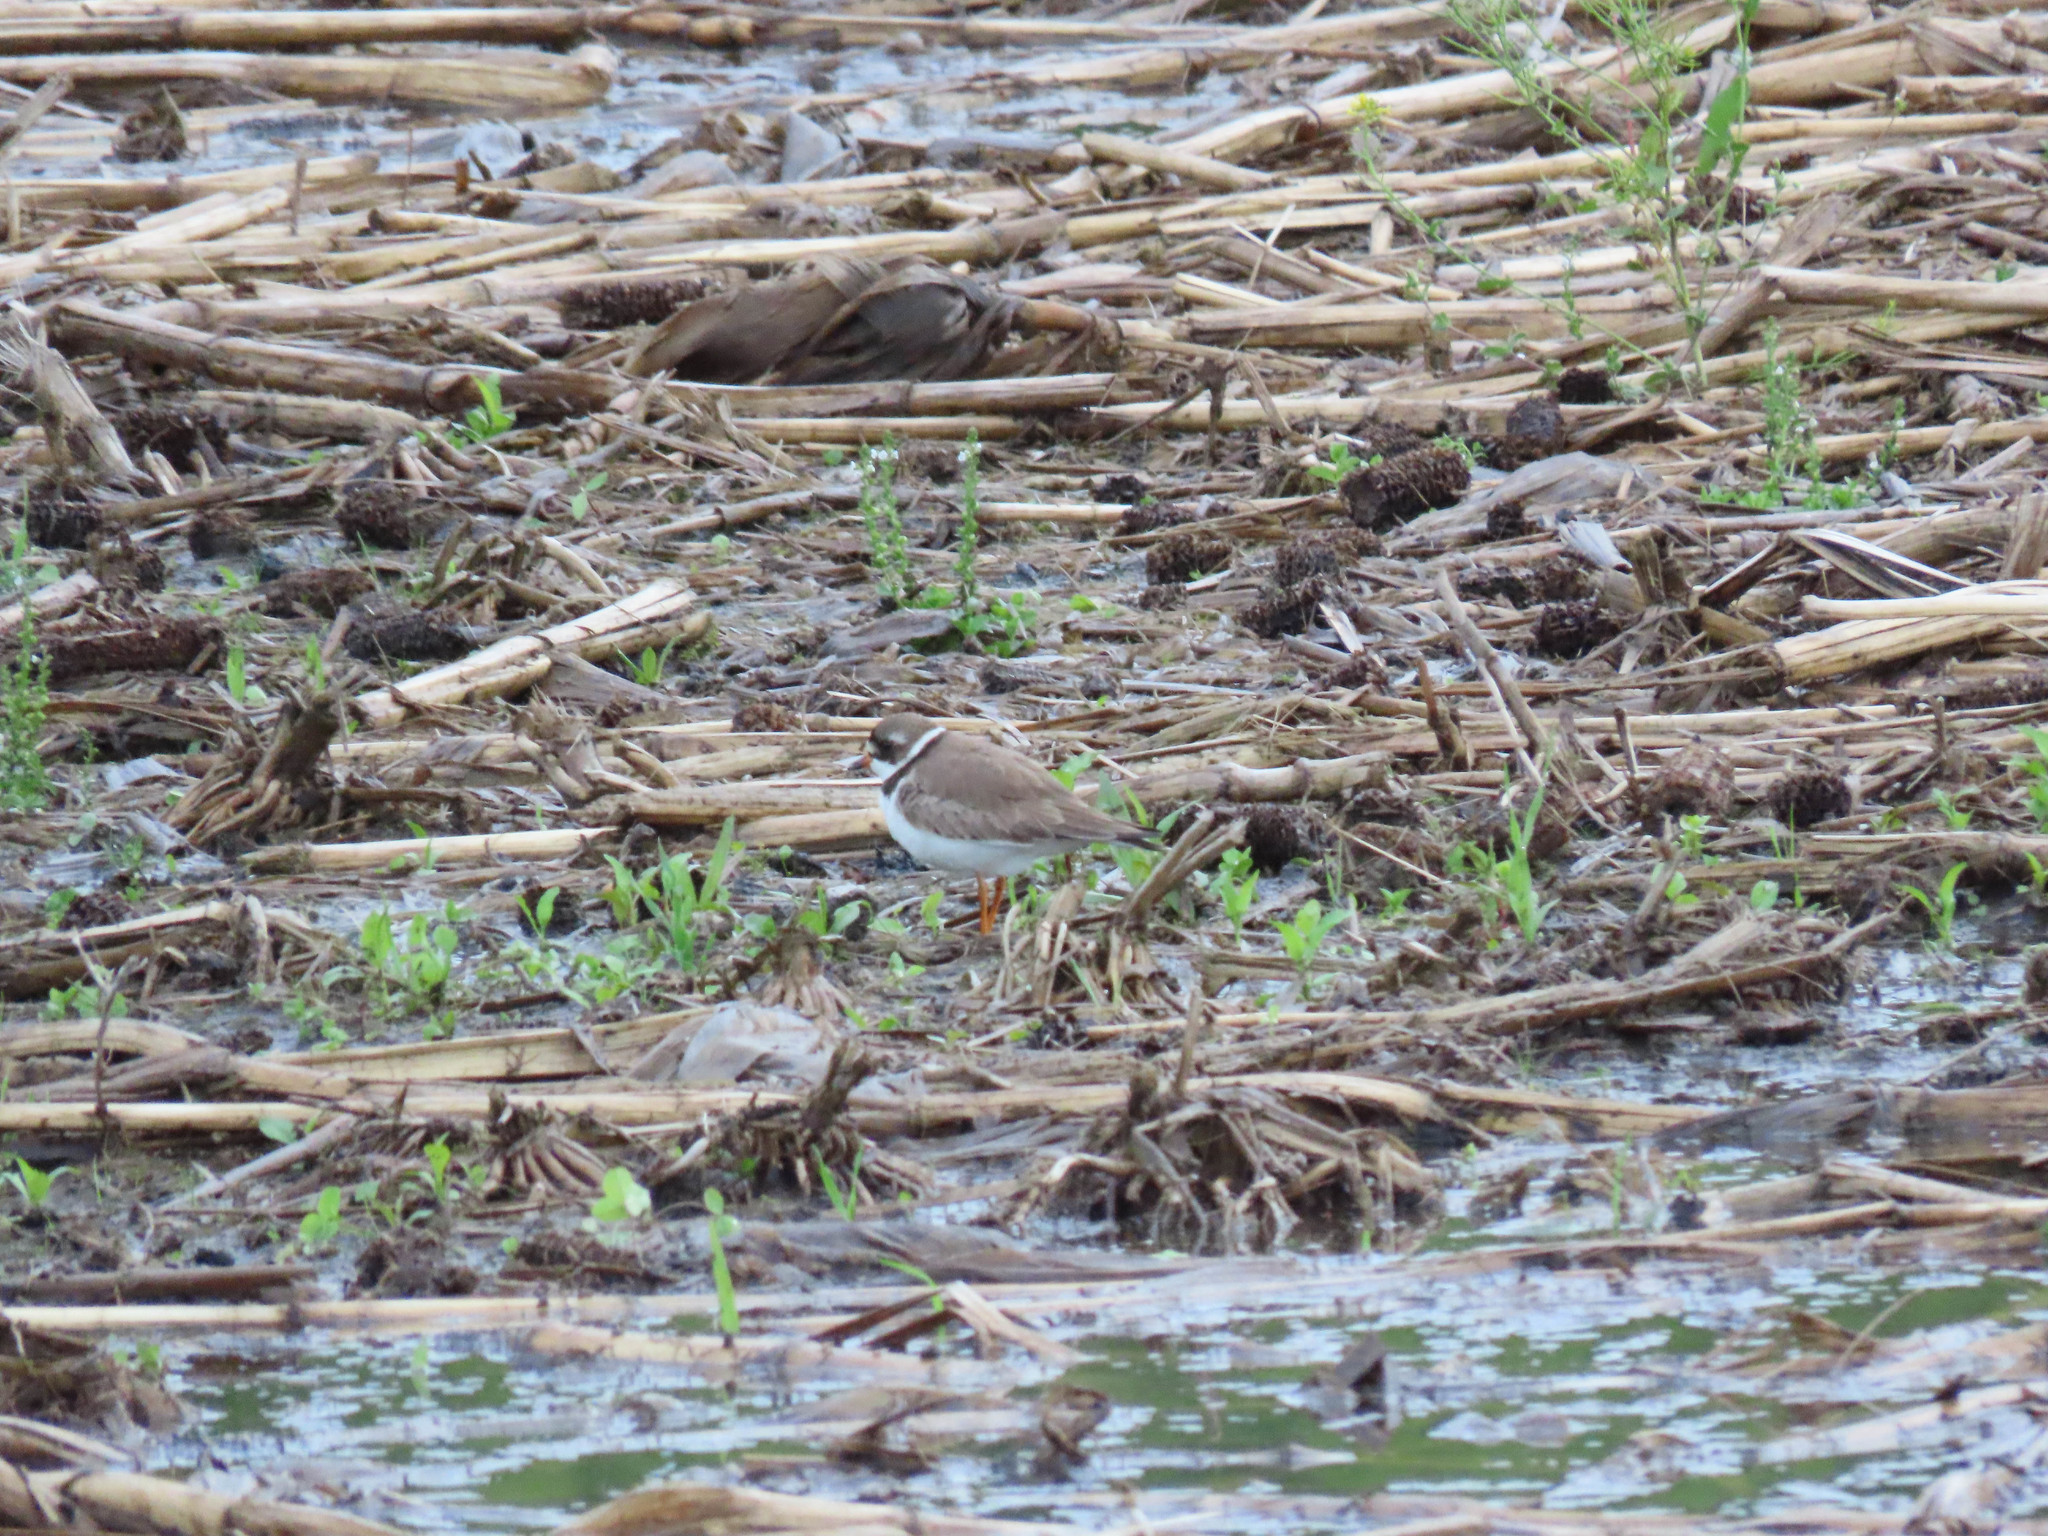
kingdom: Animalia
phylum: Chordata
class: Aves
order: Charadriiformes
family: Charadriidae
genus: Charadrius
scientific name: Charadrius semipalmatus
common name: Semipalmated plover
